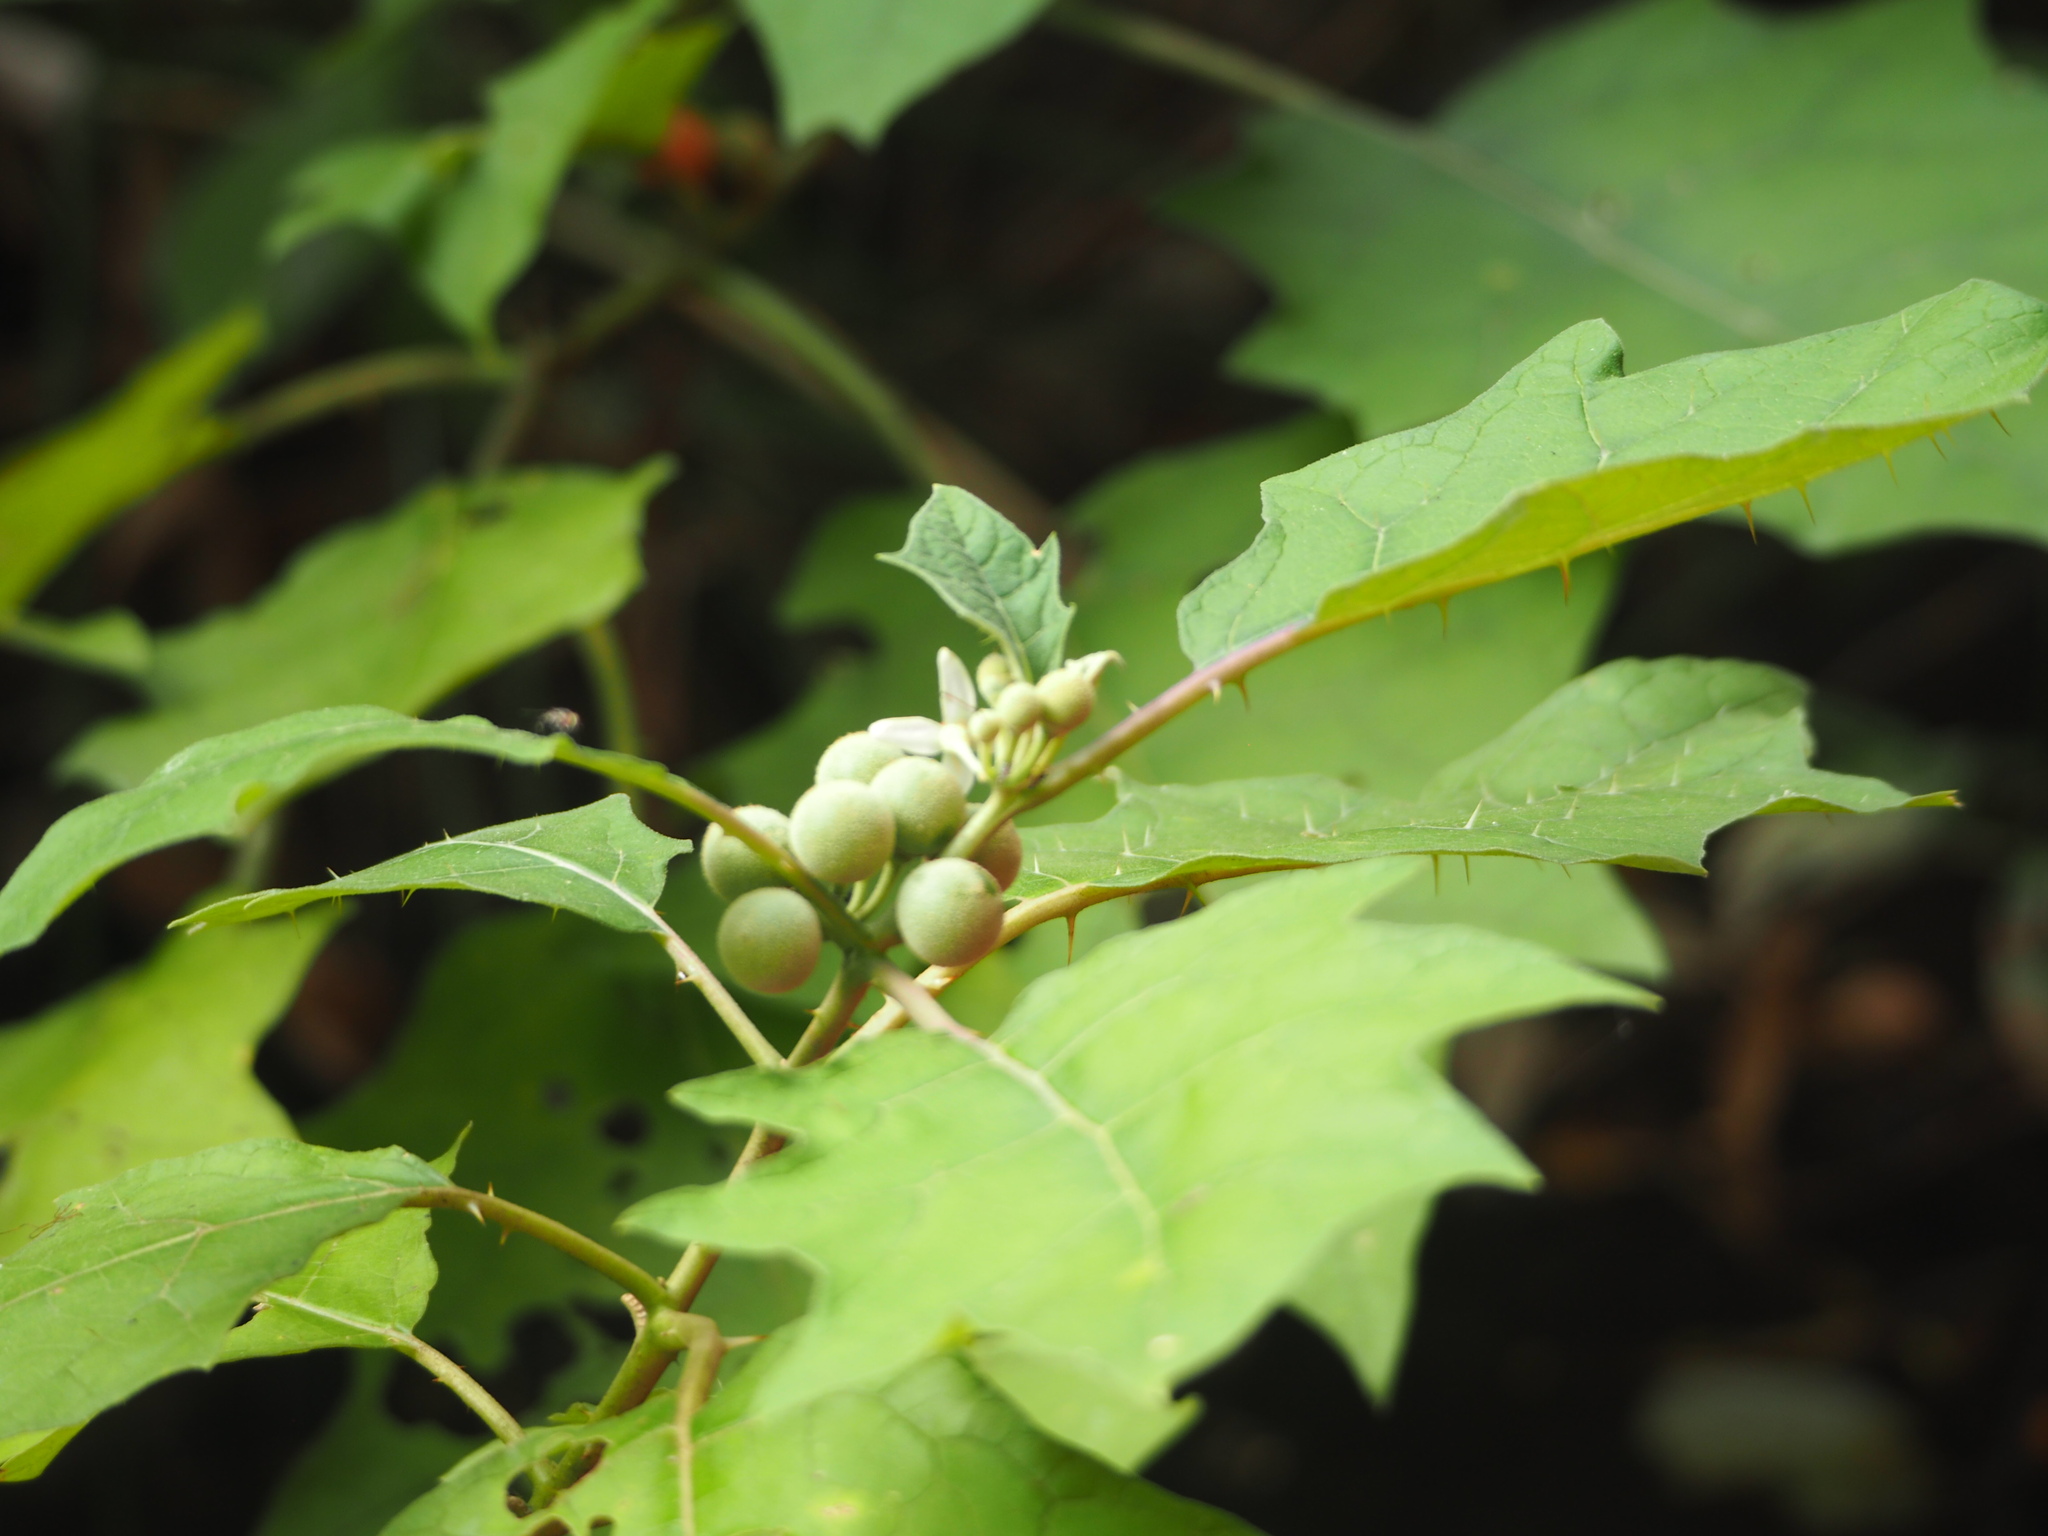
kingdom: Plantae
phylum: Tracheophyta
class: Magnoliopsida
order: Solanales
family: Solanaceae
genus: Solanum
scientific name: Solanum
